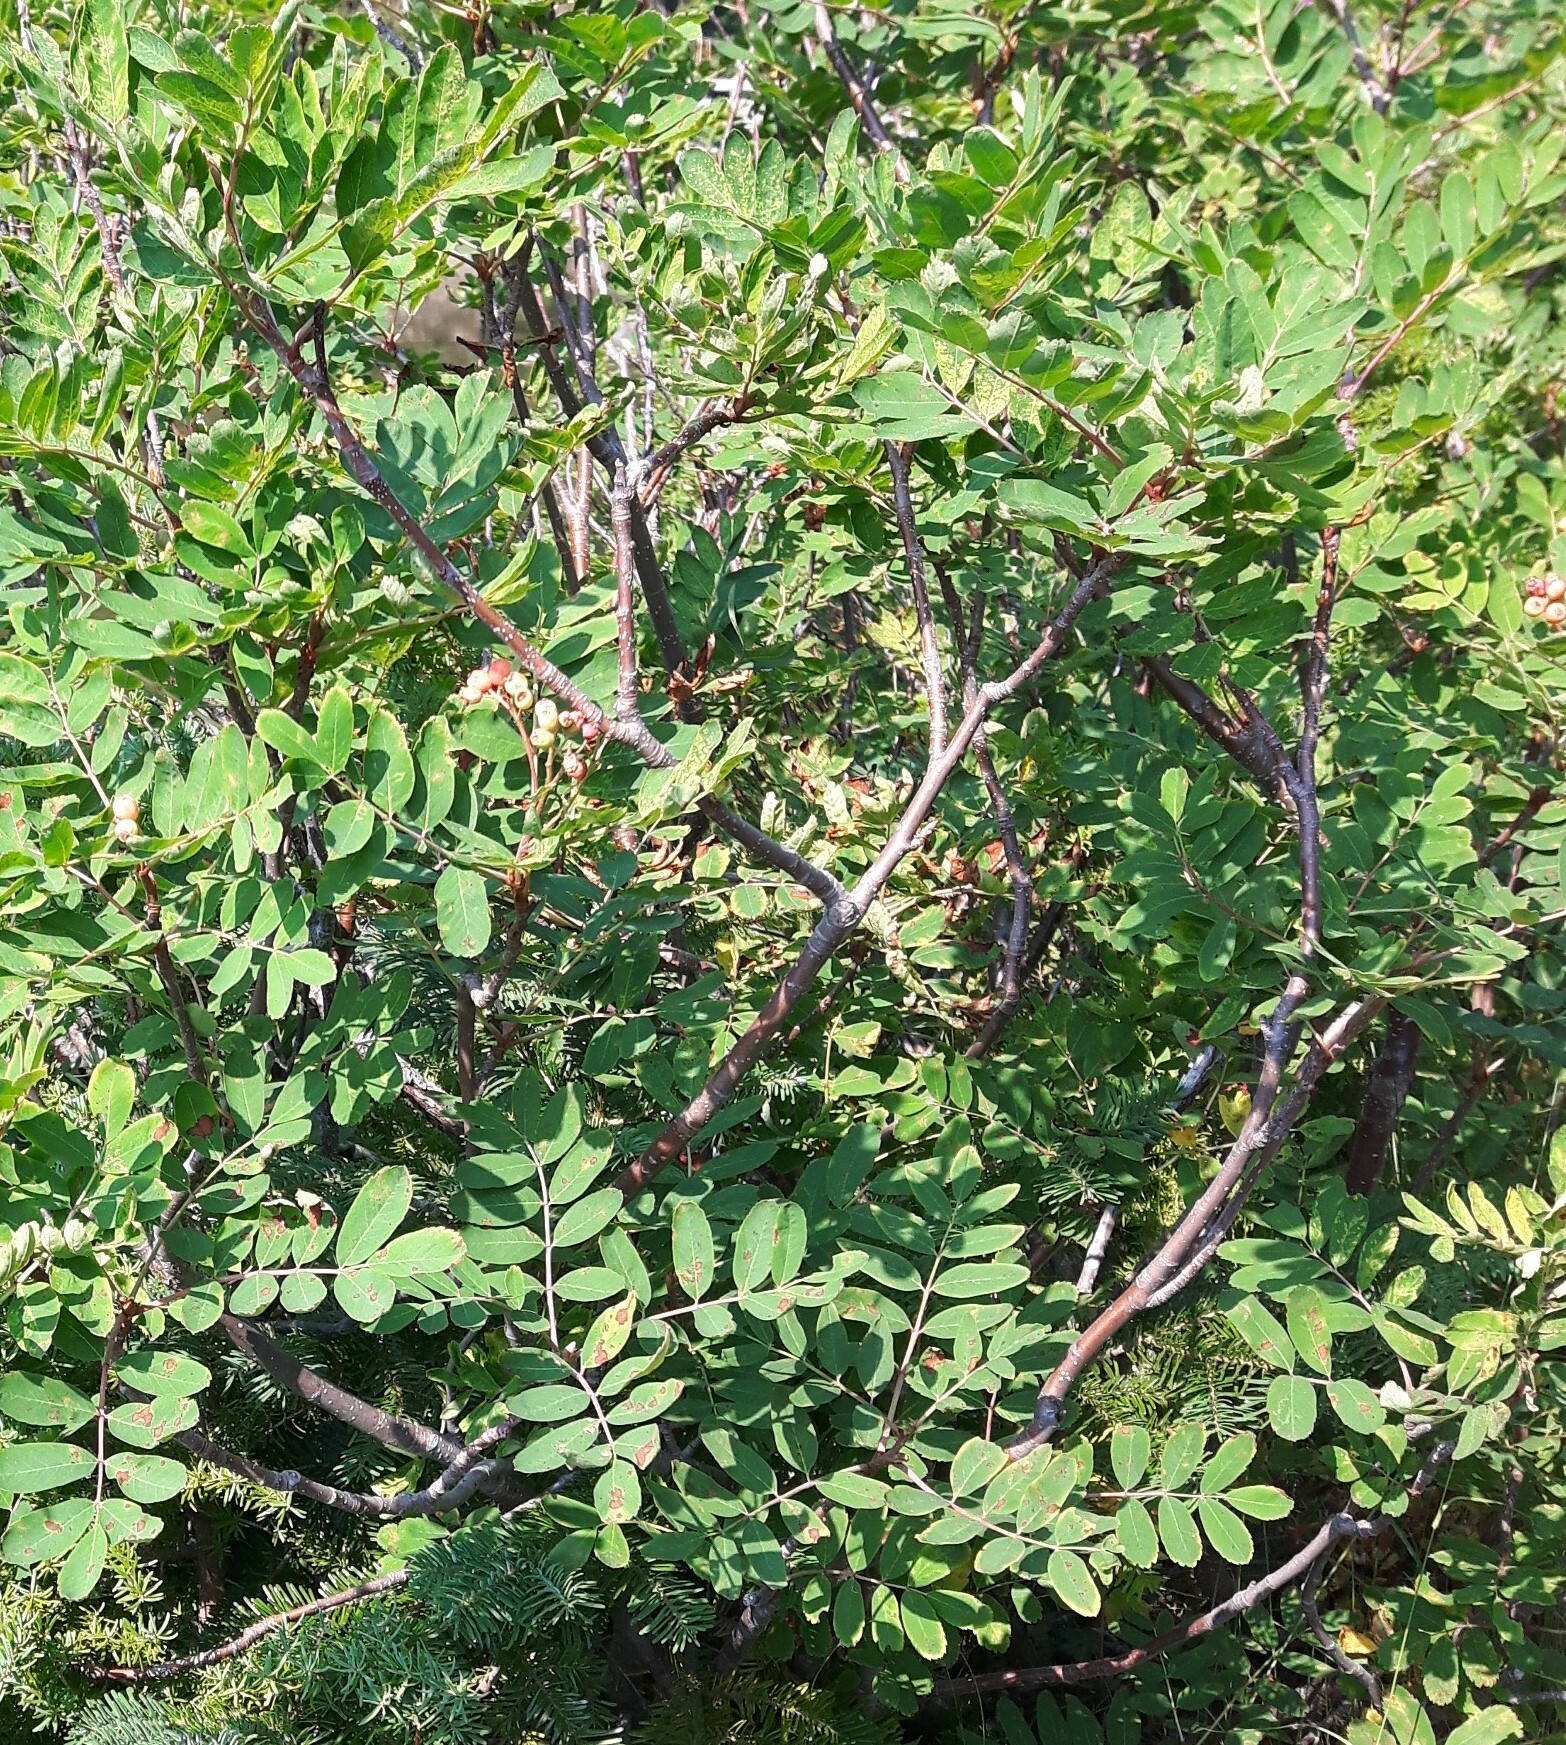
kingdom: Plantae
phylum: Tracheophyta
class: Magnoliopsida
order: Rosales
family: Rosaceae
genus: Sorbus
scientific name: Sorbus sitchensis
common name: Sitka mountain-ash
